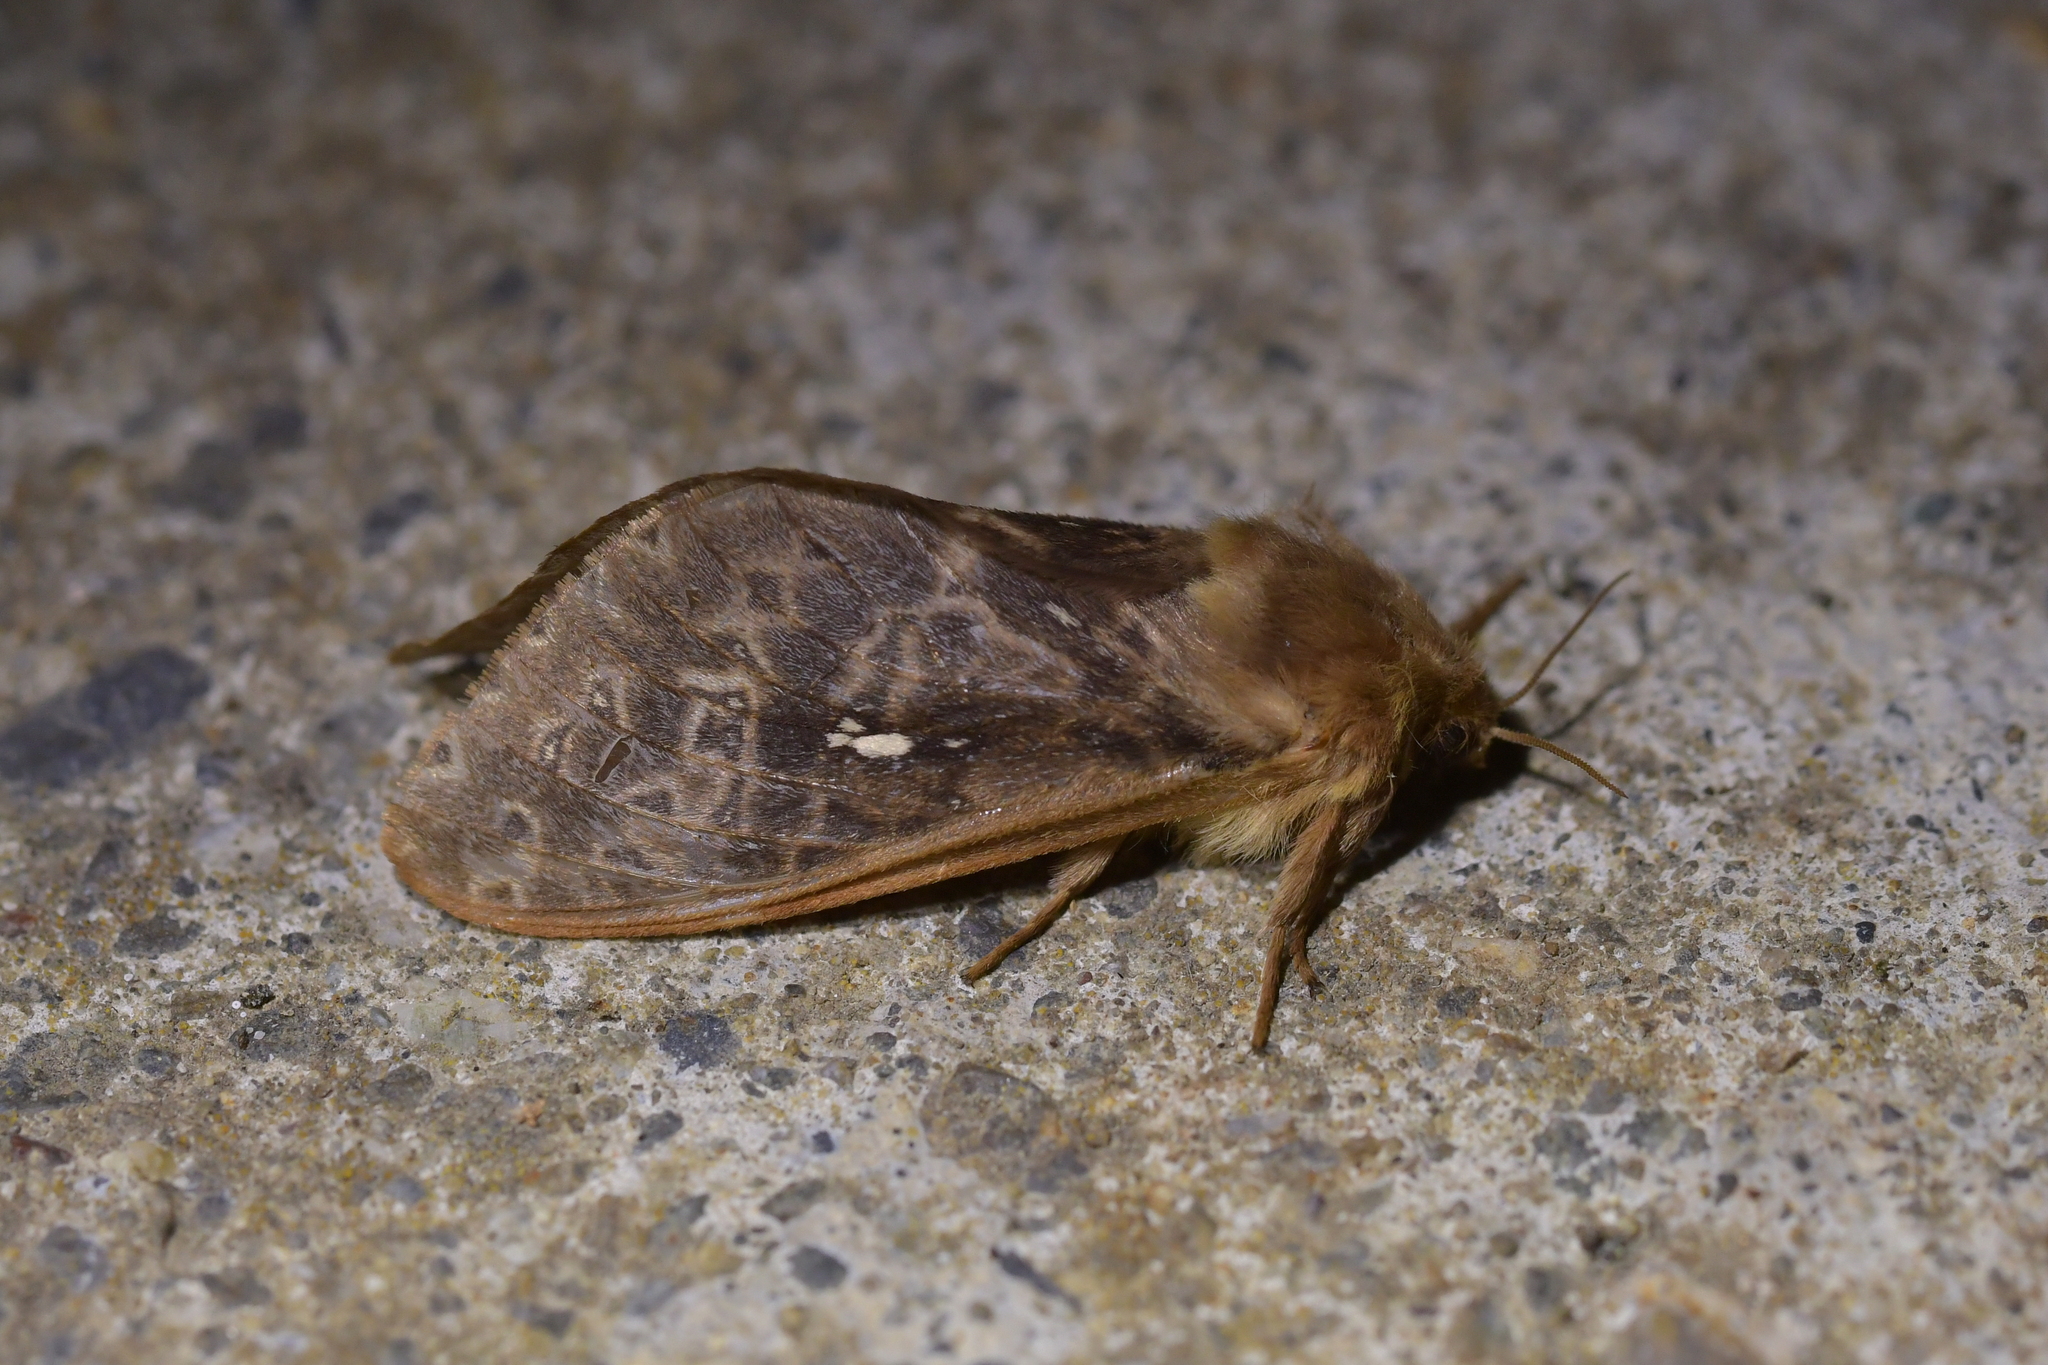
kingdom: Animalia
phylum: Arthropoda
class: Insecta
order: Lepidoptera
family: Hepialidae
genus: Wiseana
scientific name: Wiseana cervinata
